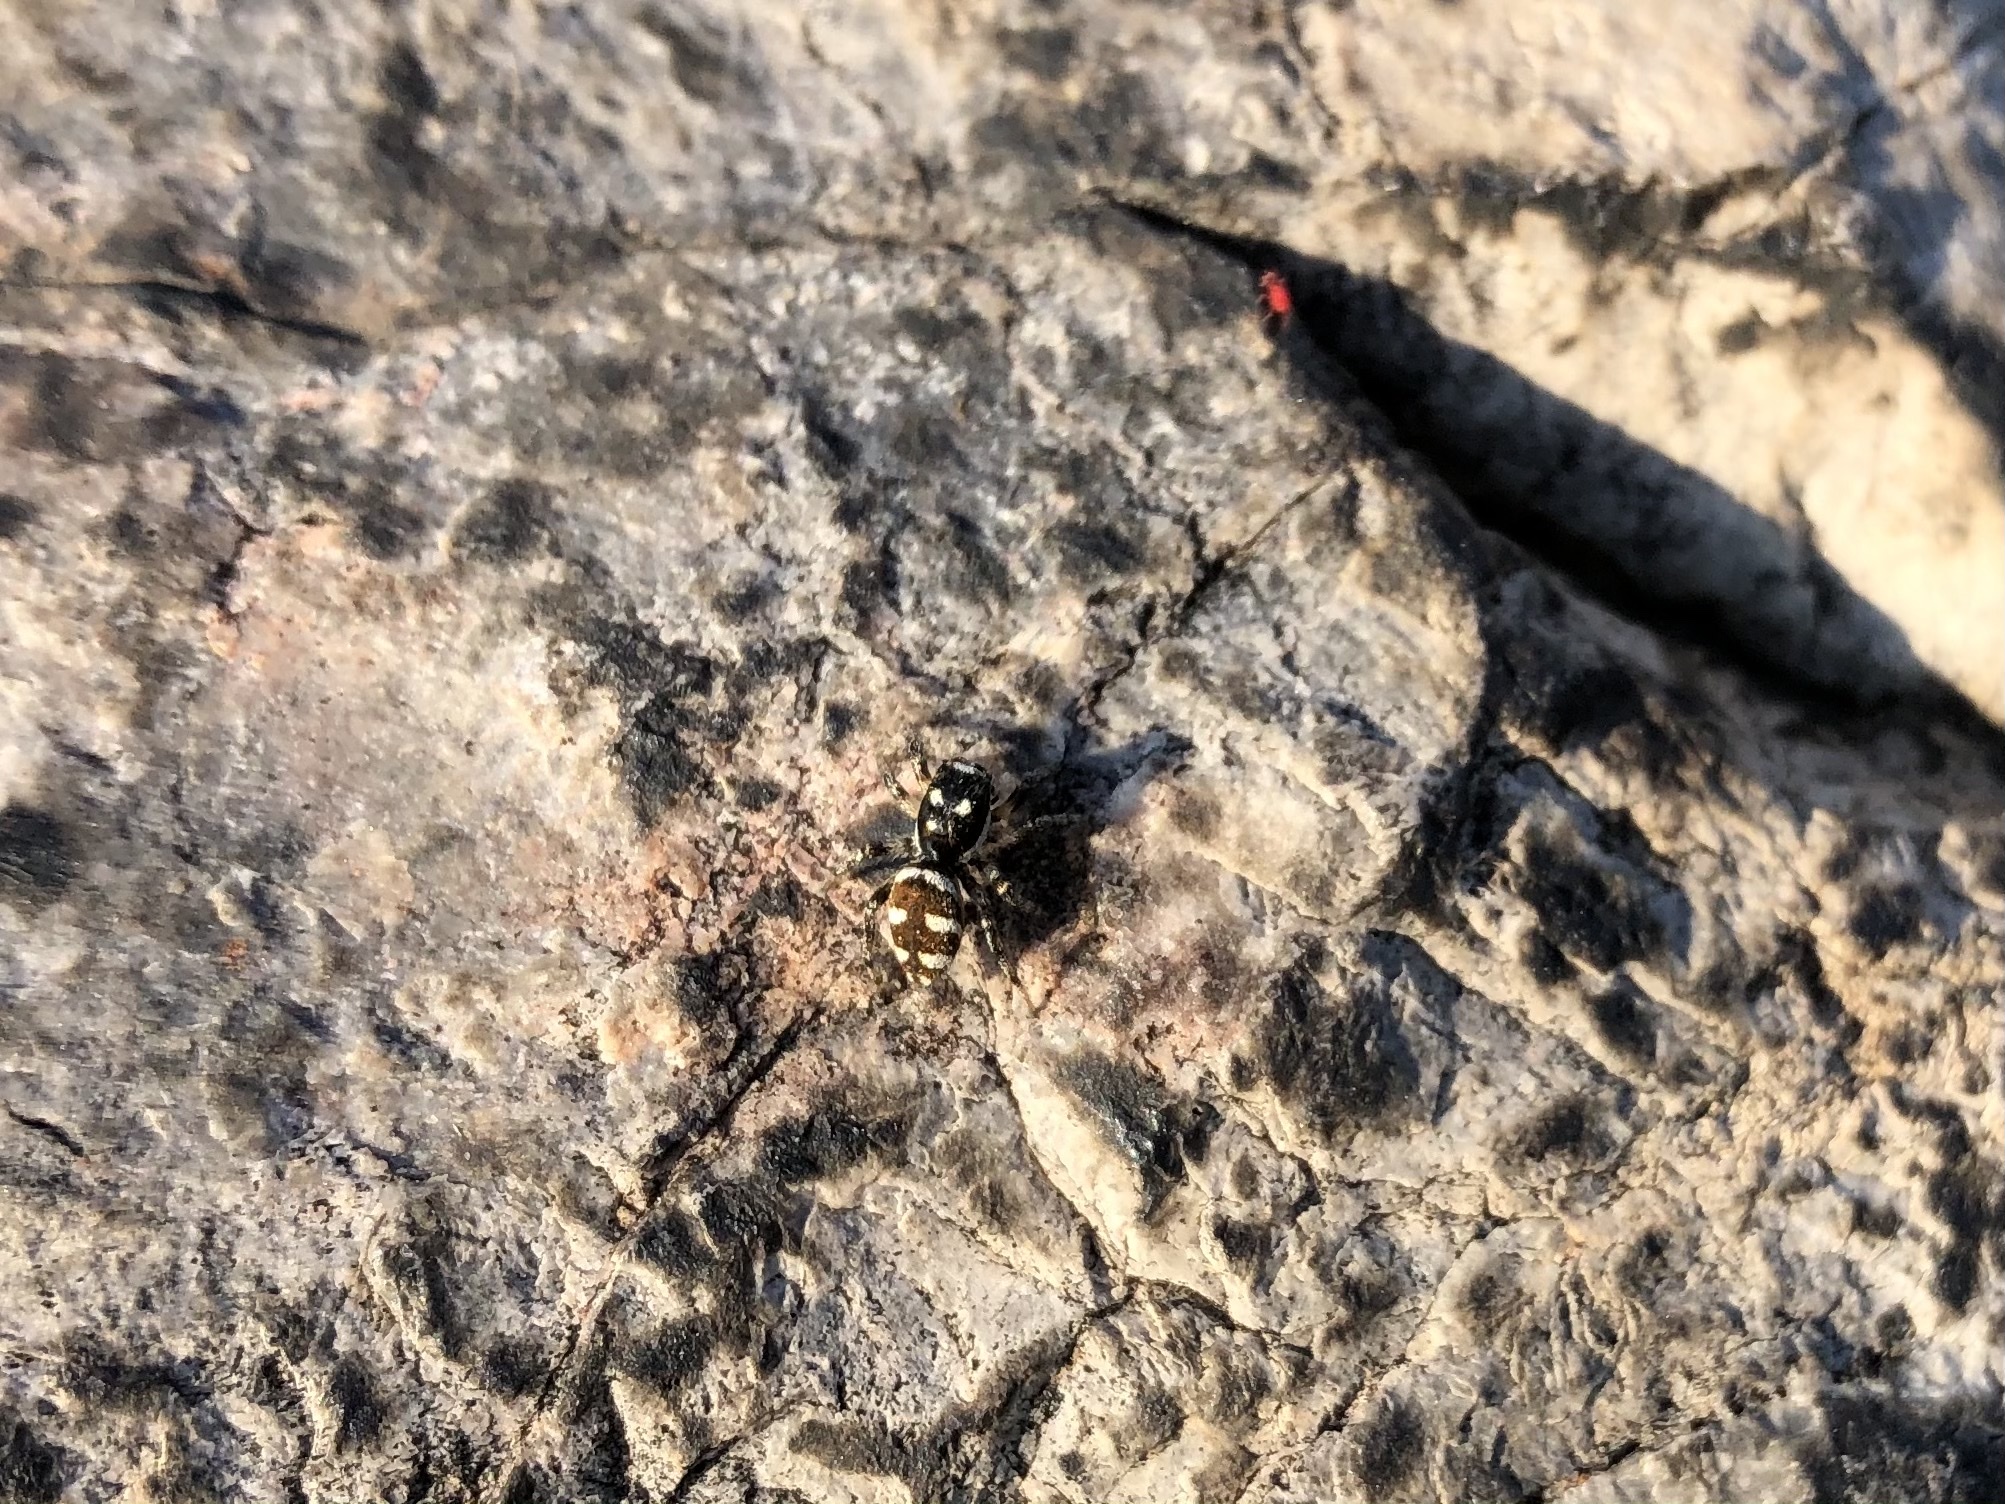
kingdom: Animalia
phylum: Arthropoda
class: Arachnida
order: Araneae
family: Salticidae
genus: Salticus
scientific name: Salticus scenicus
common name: Zebra jumper
